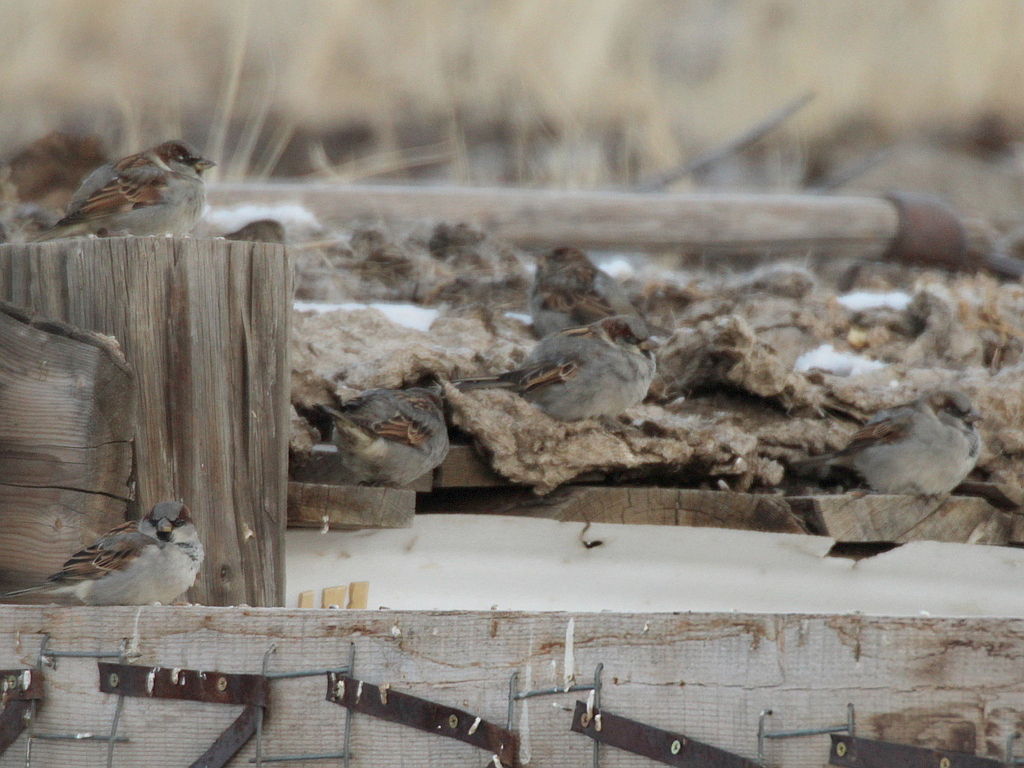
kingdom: Animalia
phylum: Chordata
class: Aves
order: Passeriformes
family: Passeridae
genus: Passer
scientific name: Passer domesticus
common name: House sparrow
